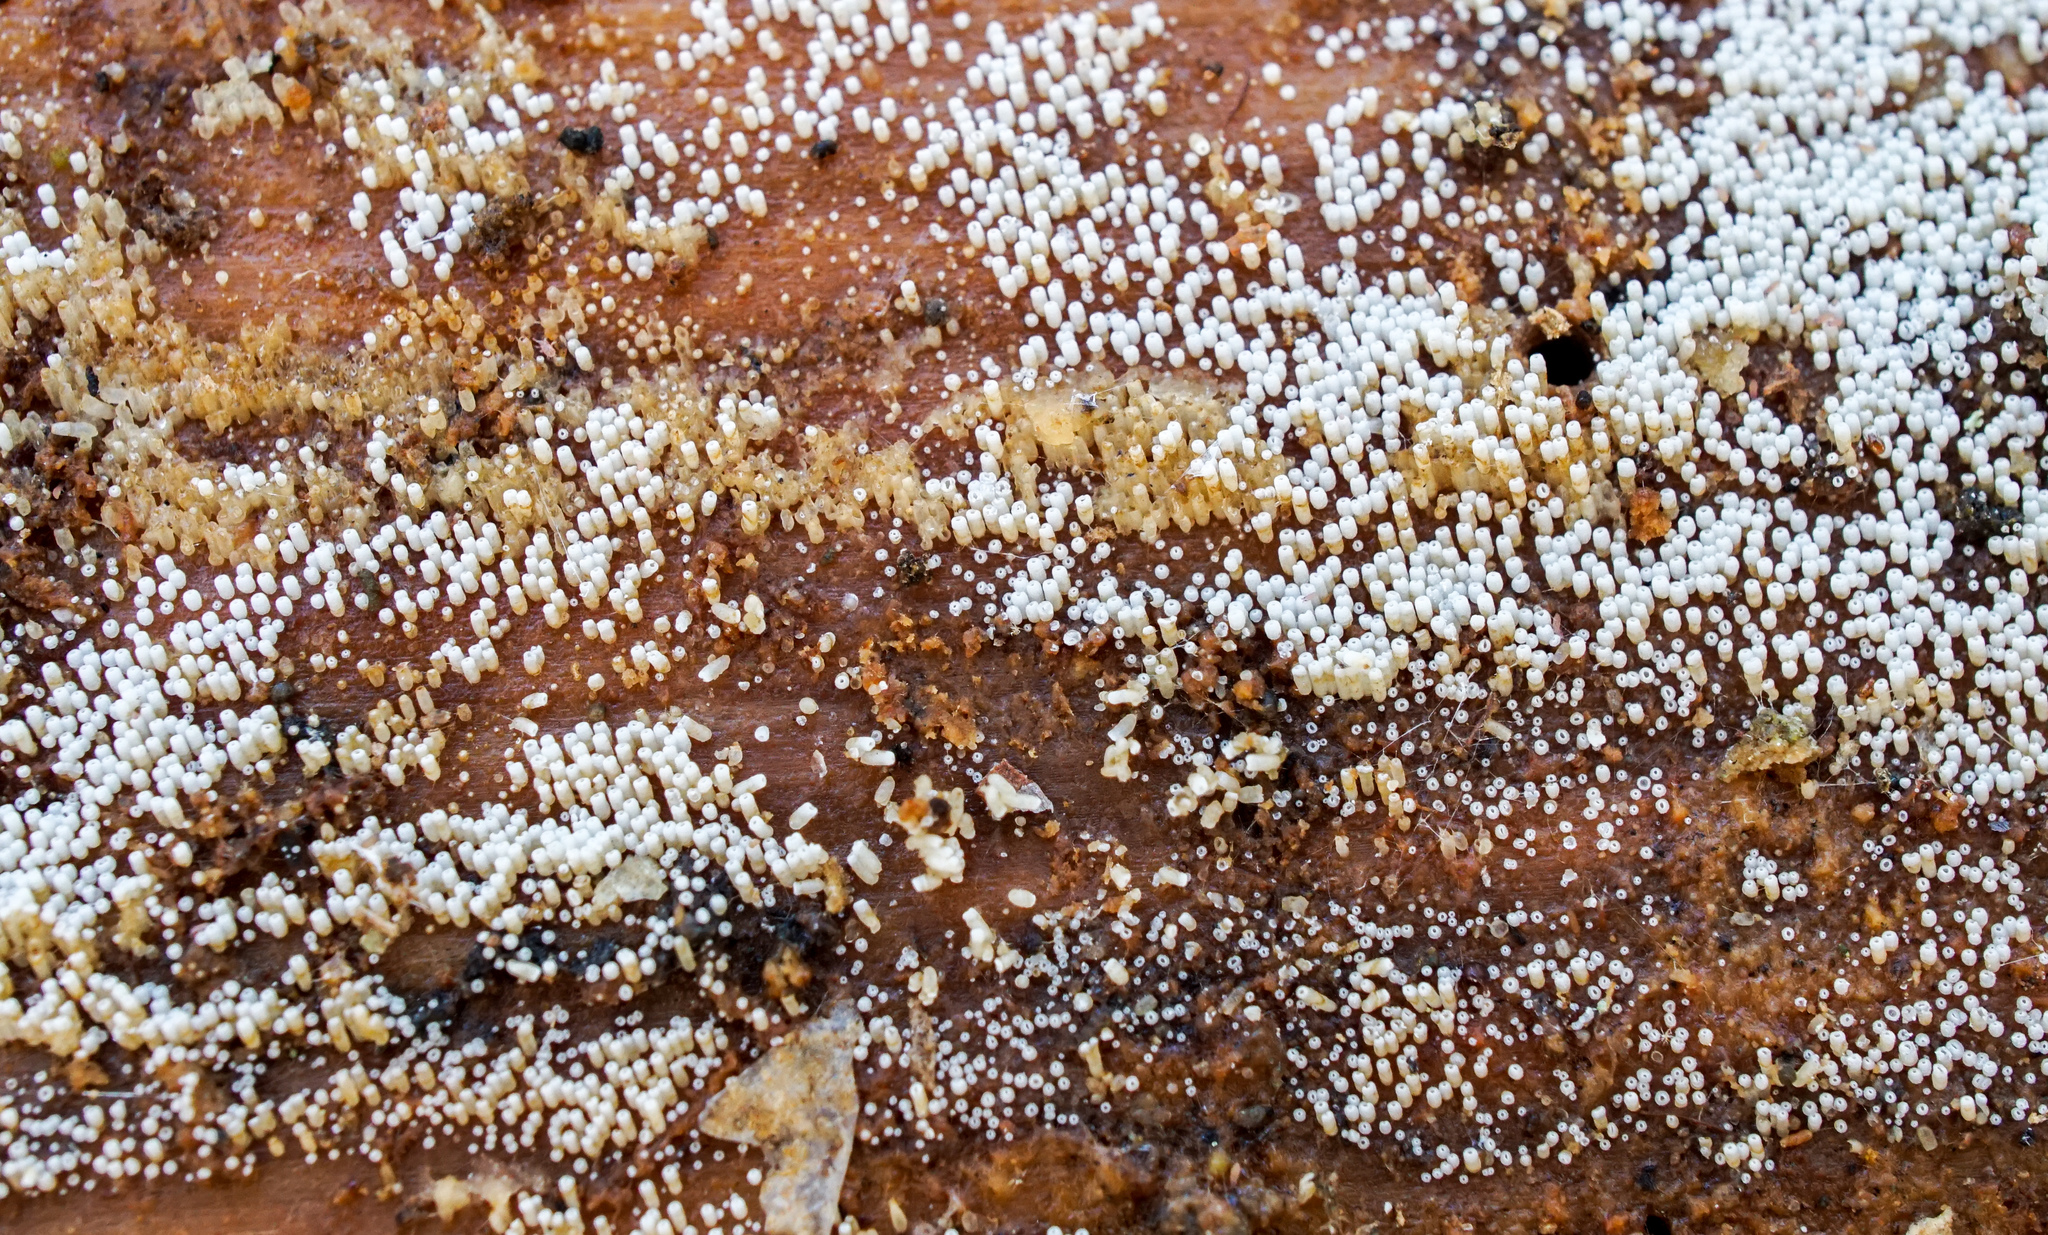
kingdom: Fungi
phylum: Basidiomycota
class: Agaricomycetes
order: Agaricales
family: Marasmiaceae
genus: Henningsomyces
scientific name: Henningsomyces candidus
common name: White tubelet
